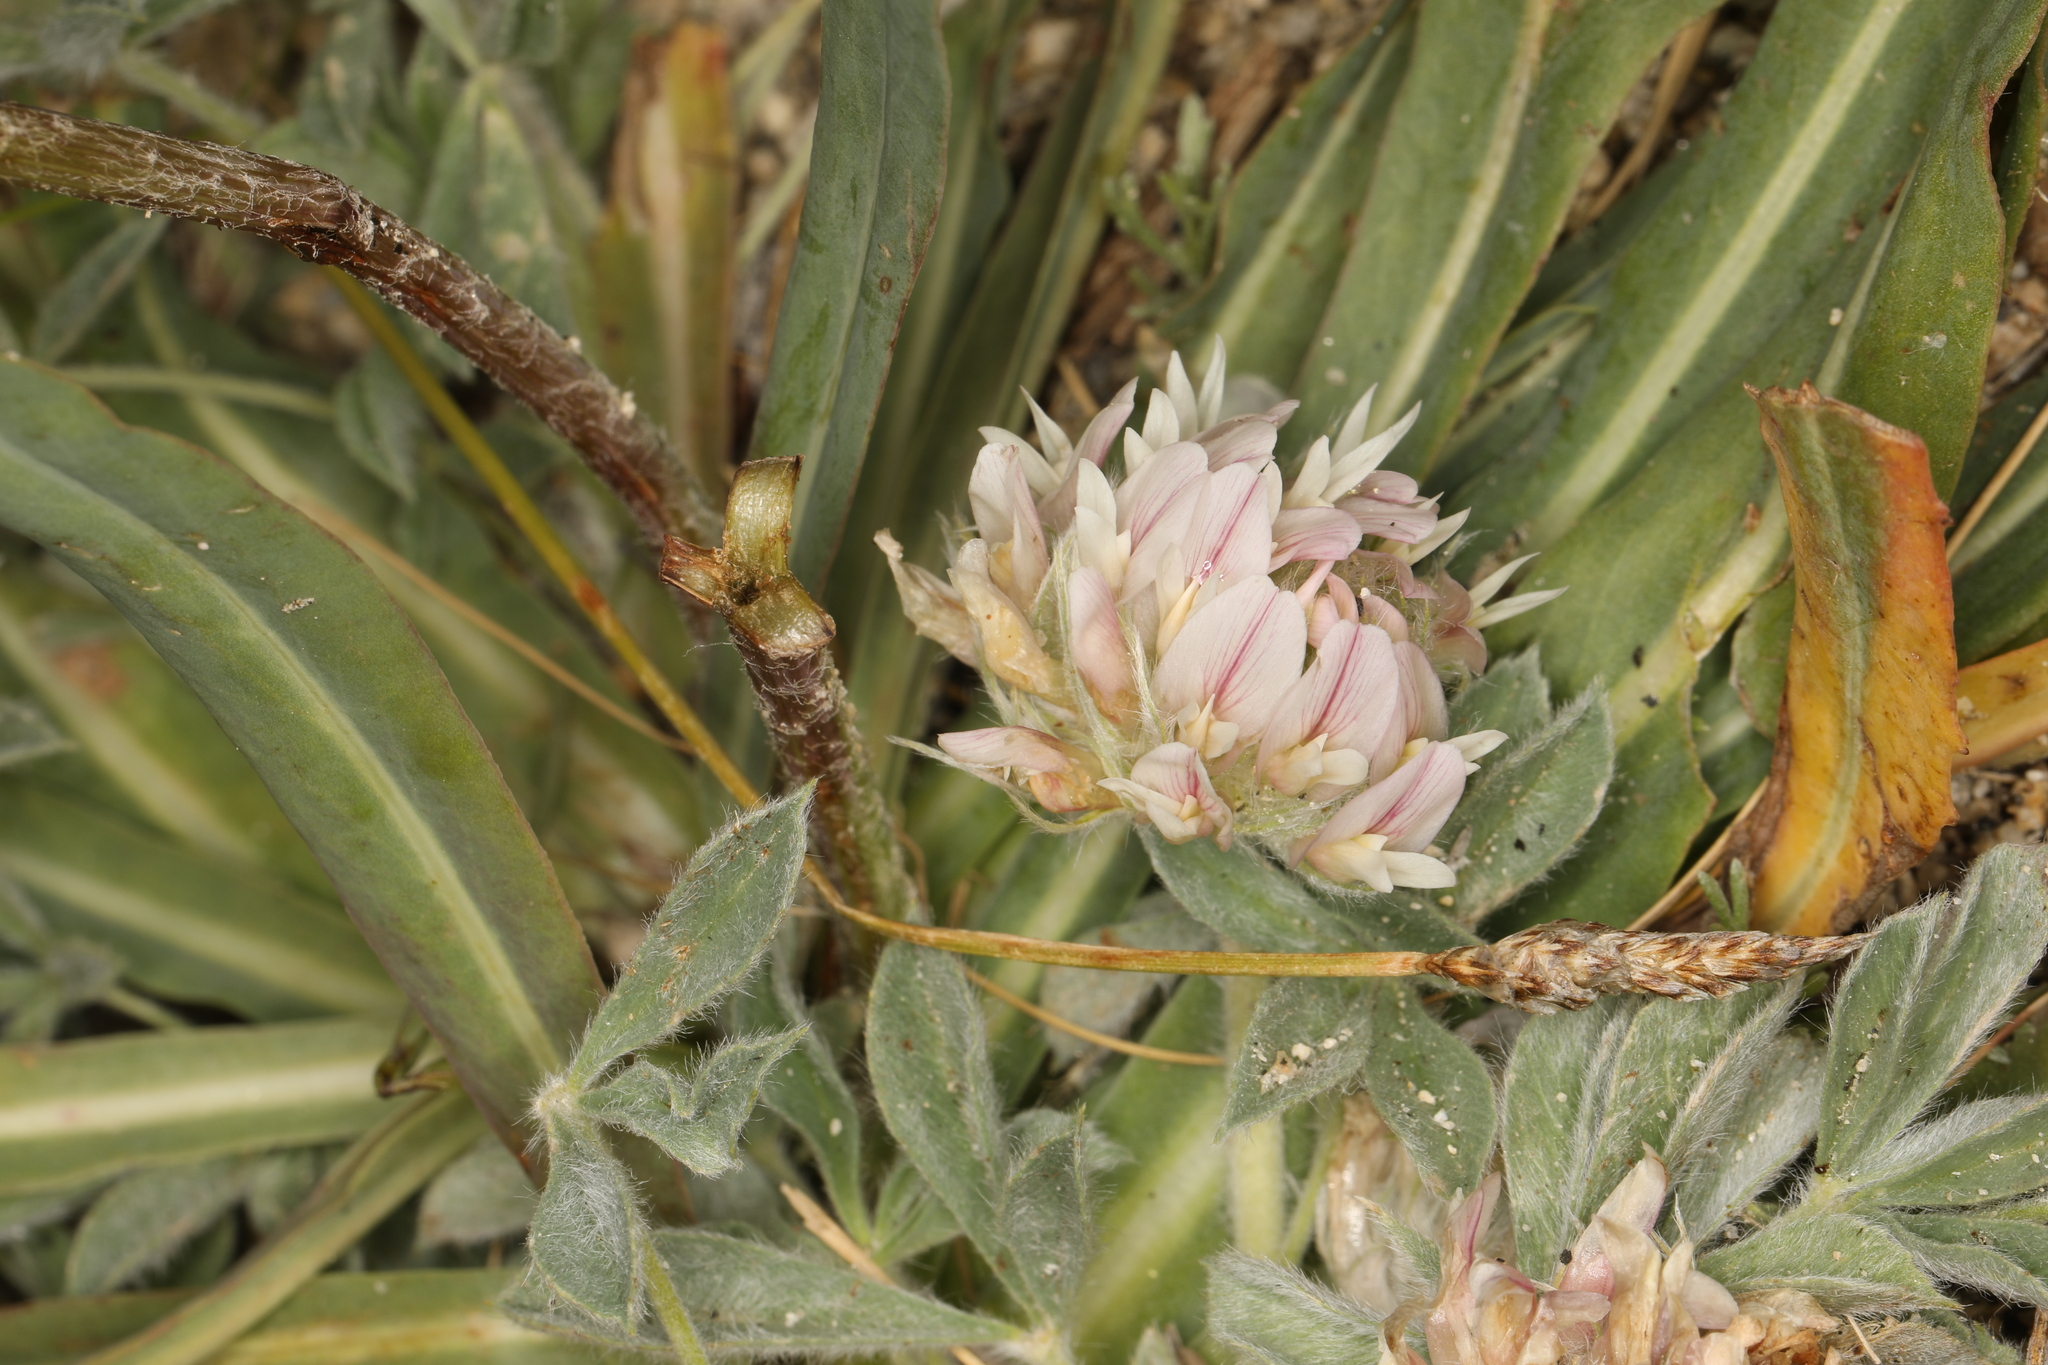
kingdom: Plantae
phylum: Tracheophyta
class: Magnoliopsida
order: Fabales
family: Fabaceae
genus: Trifolium
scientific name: Trifolium andersonii
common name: Anderson's clover
